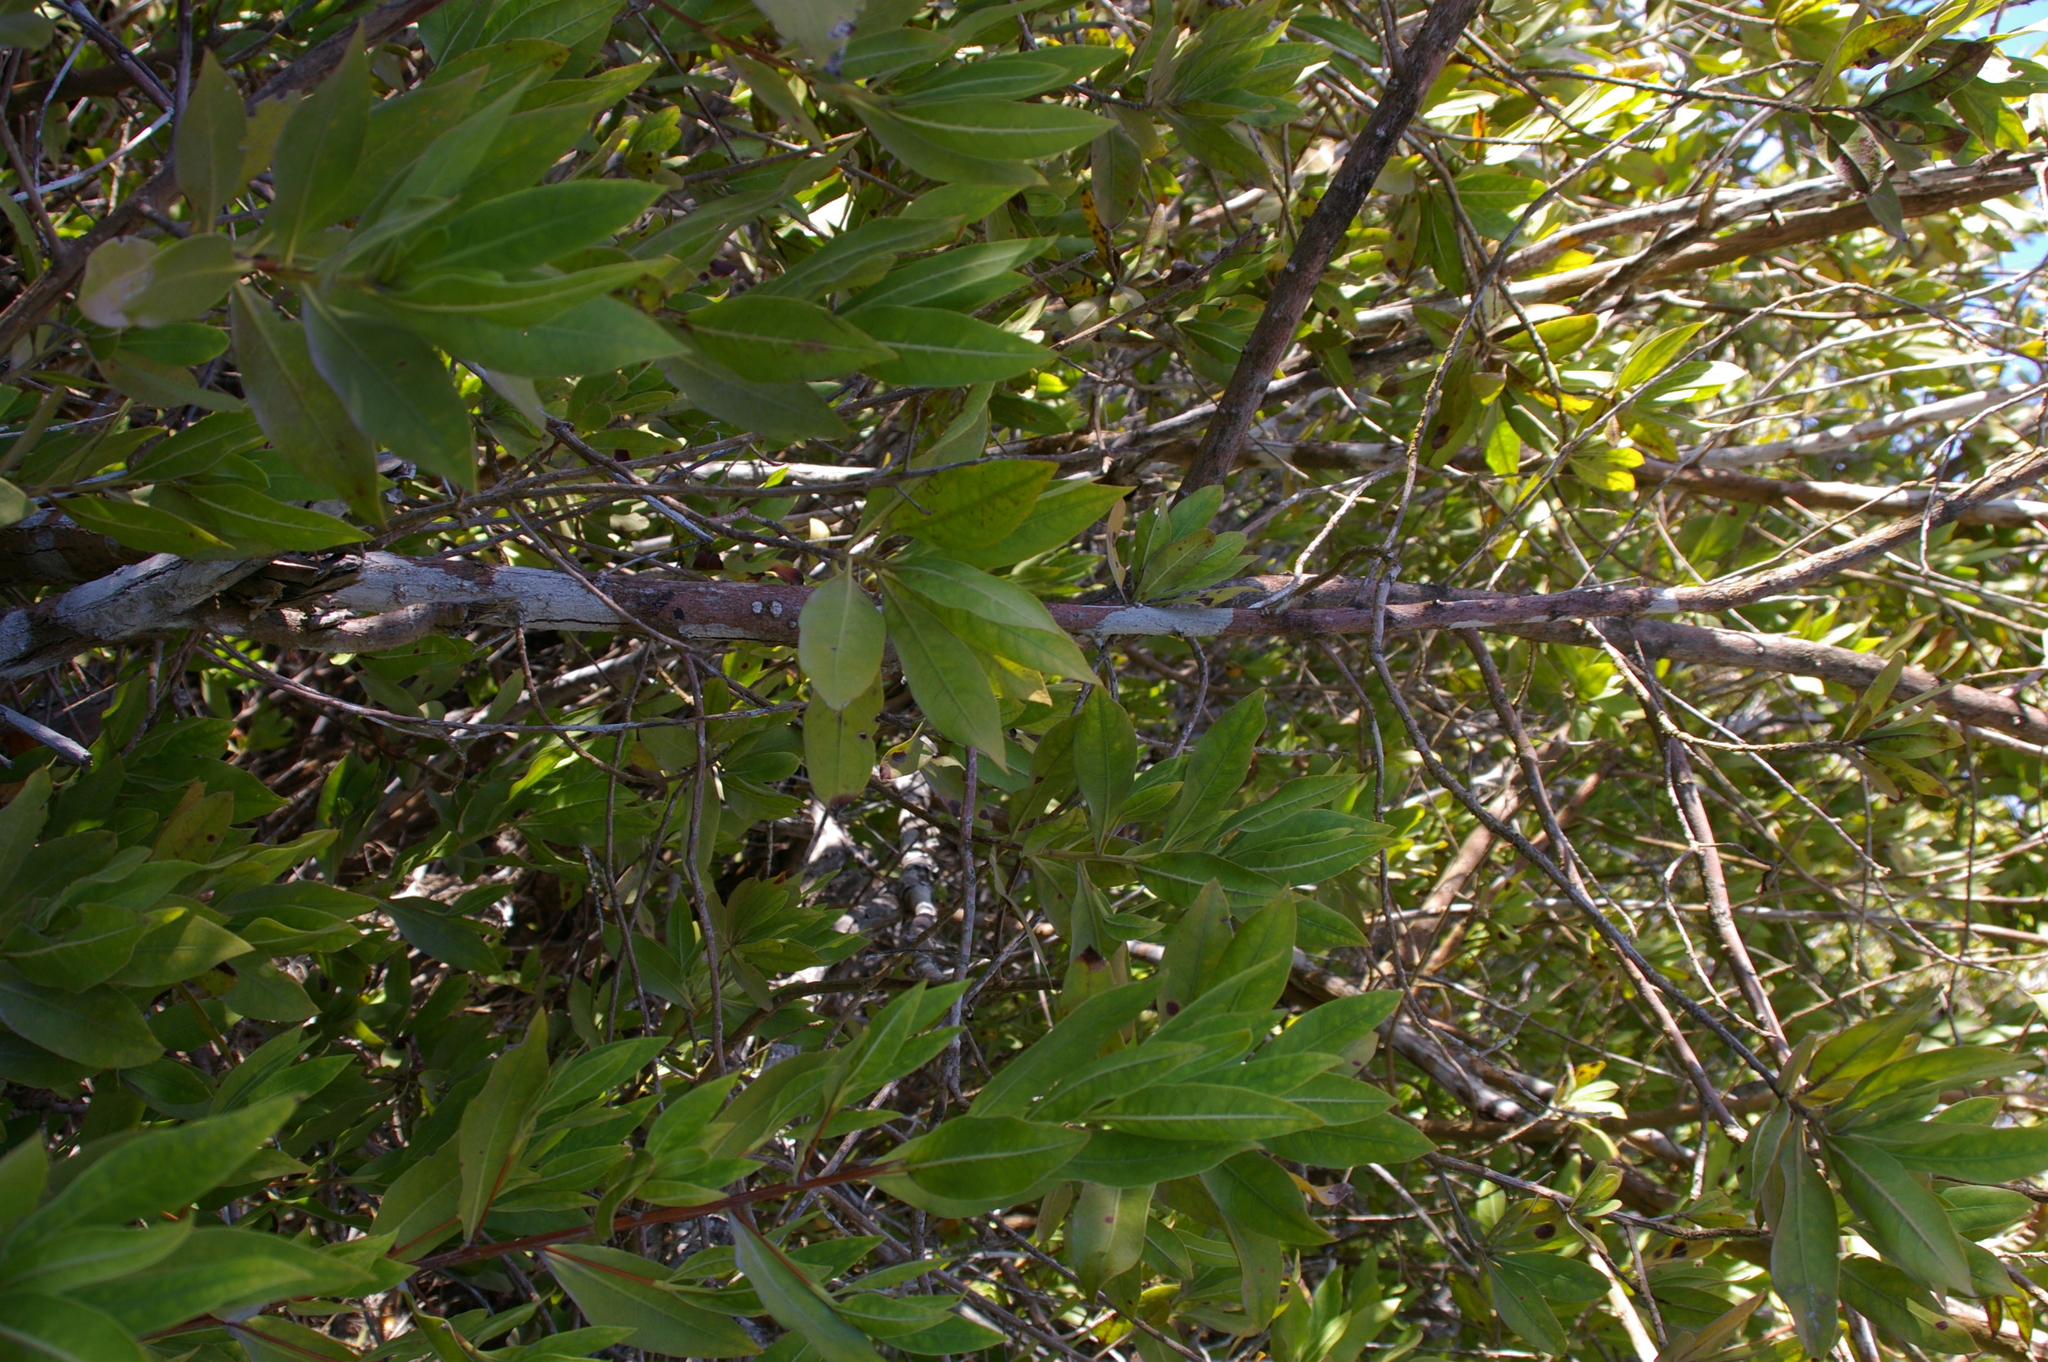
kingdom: Plantae
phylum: Tracheophyta
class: Magnoliopsida
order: Myrtales
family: Combretaceae
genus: Conocarpus
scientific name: Conocarpus erectus
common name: Button mangrove
